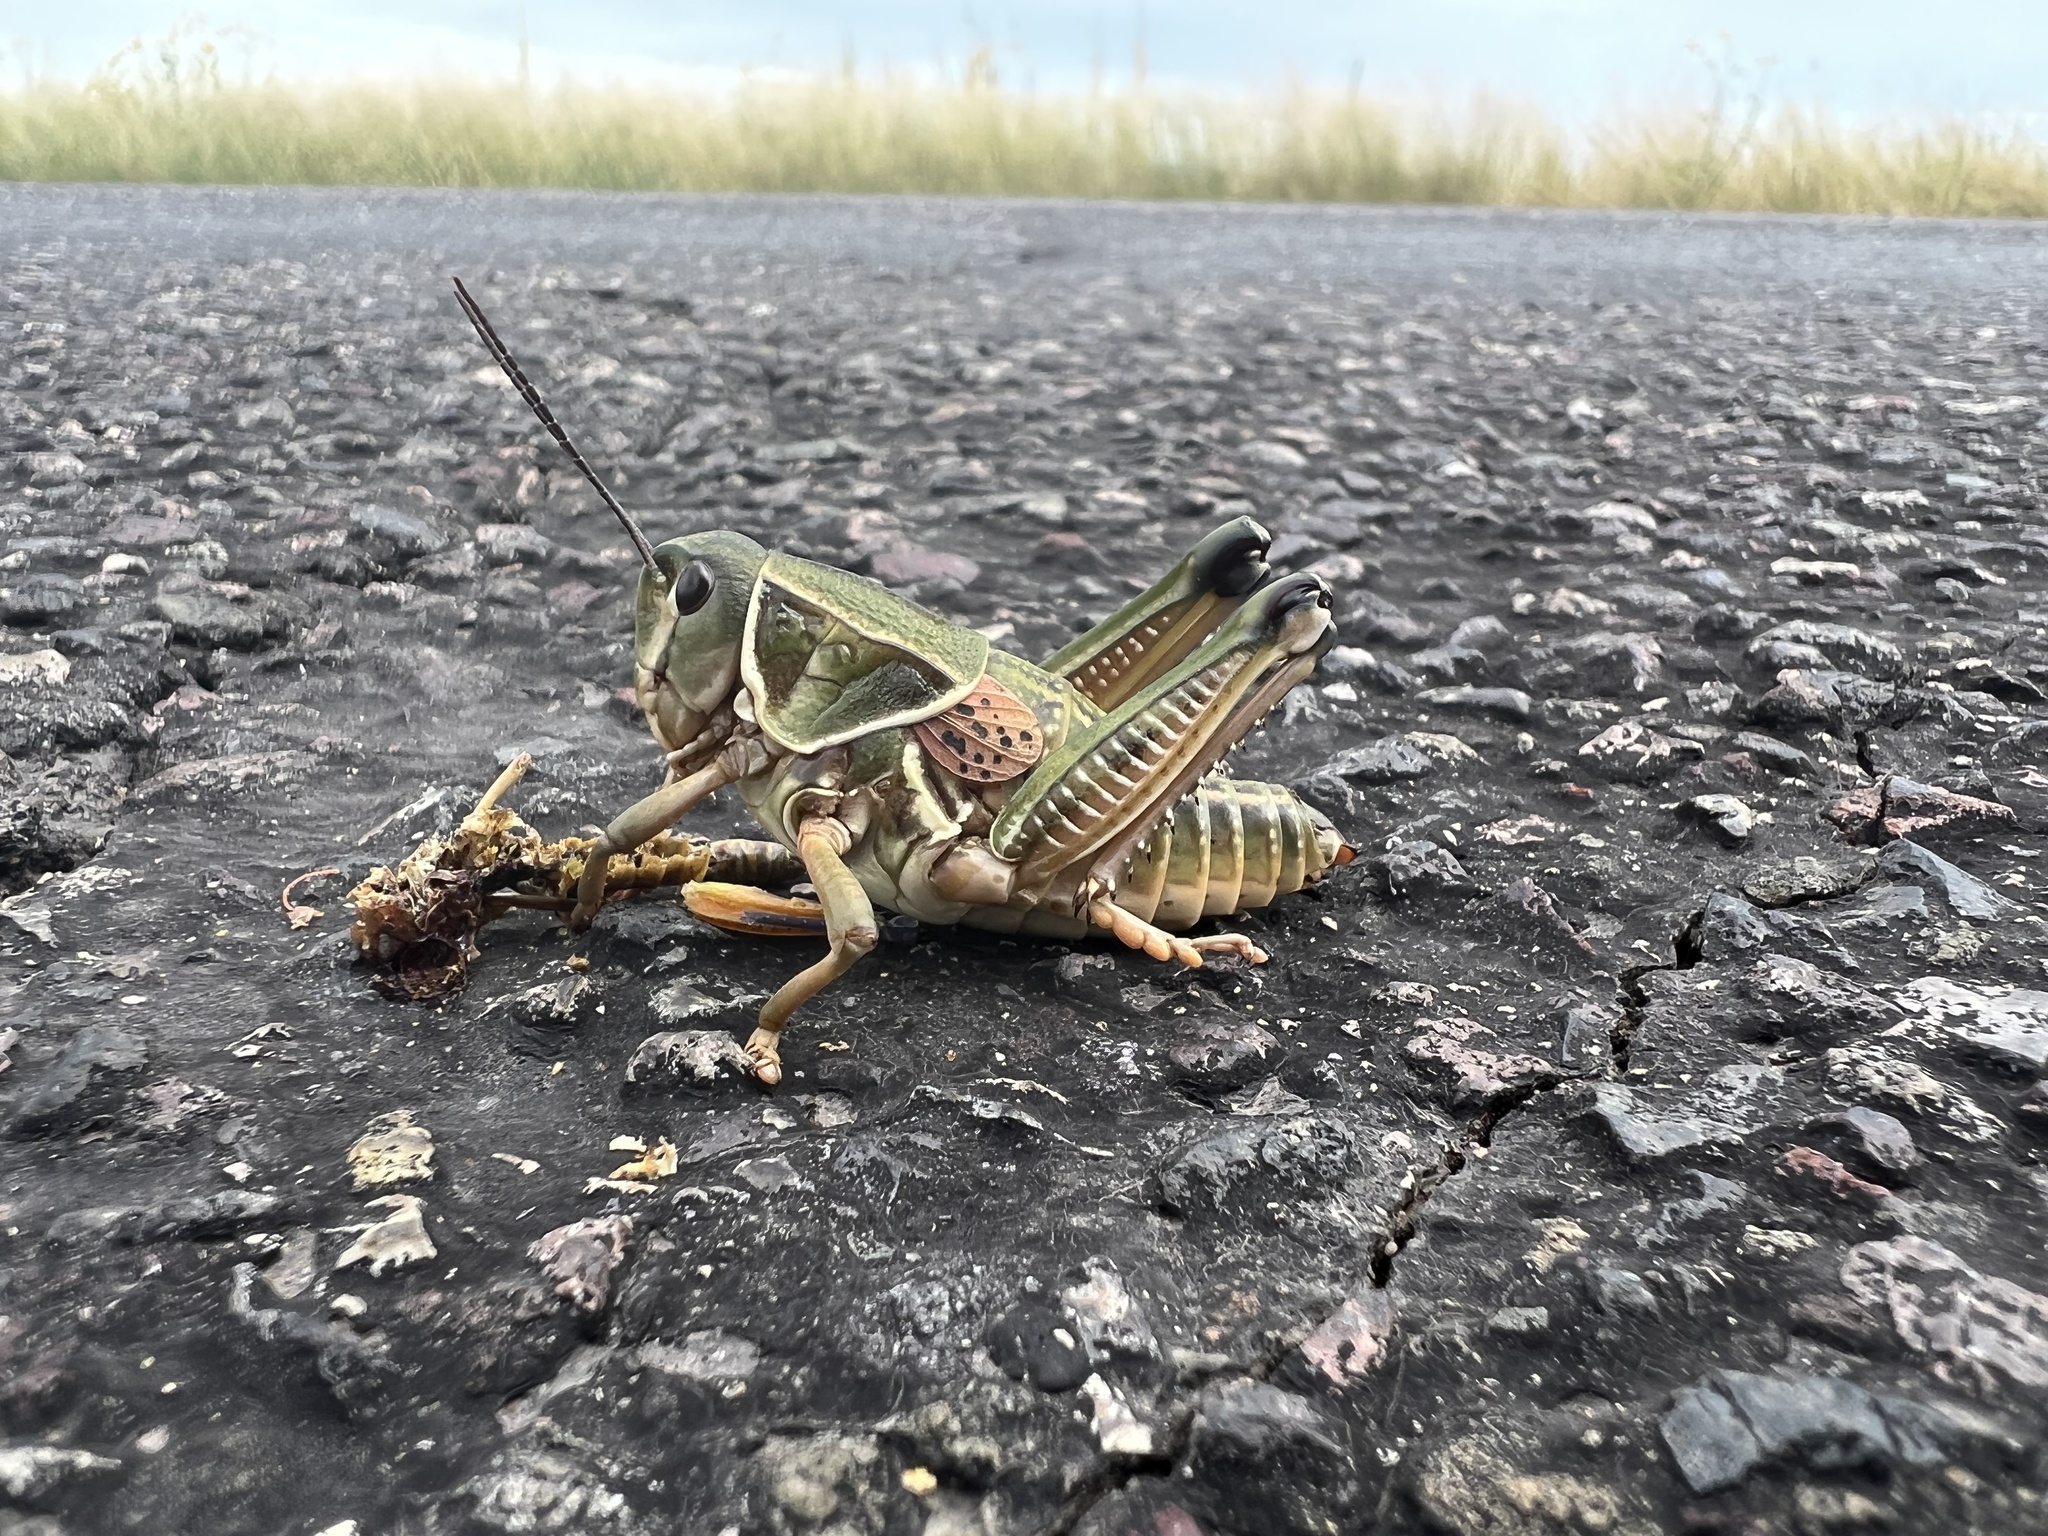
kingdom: Animalia
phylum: Arthropoda
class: Insecta
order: Orthoptera
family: Romaleidae
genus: Brachystola
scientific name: Brachystola magna
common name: Plains lubber grasshopper
